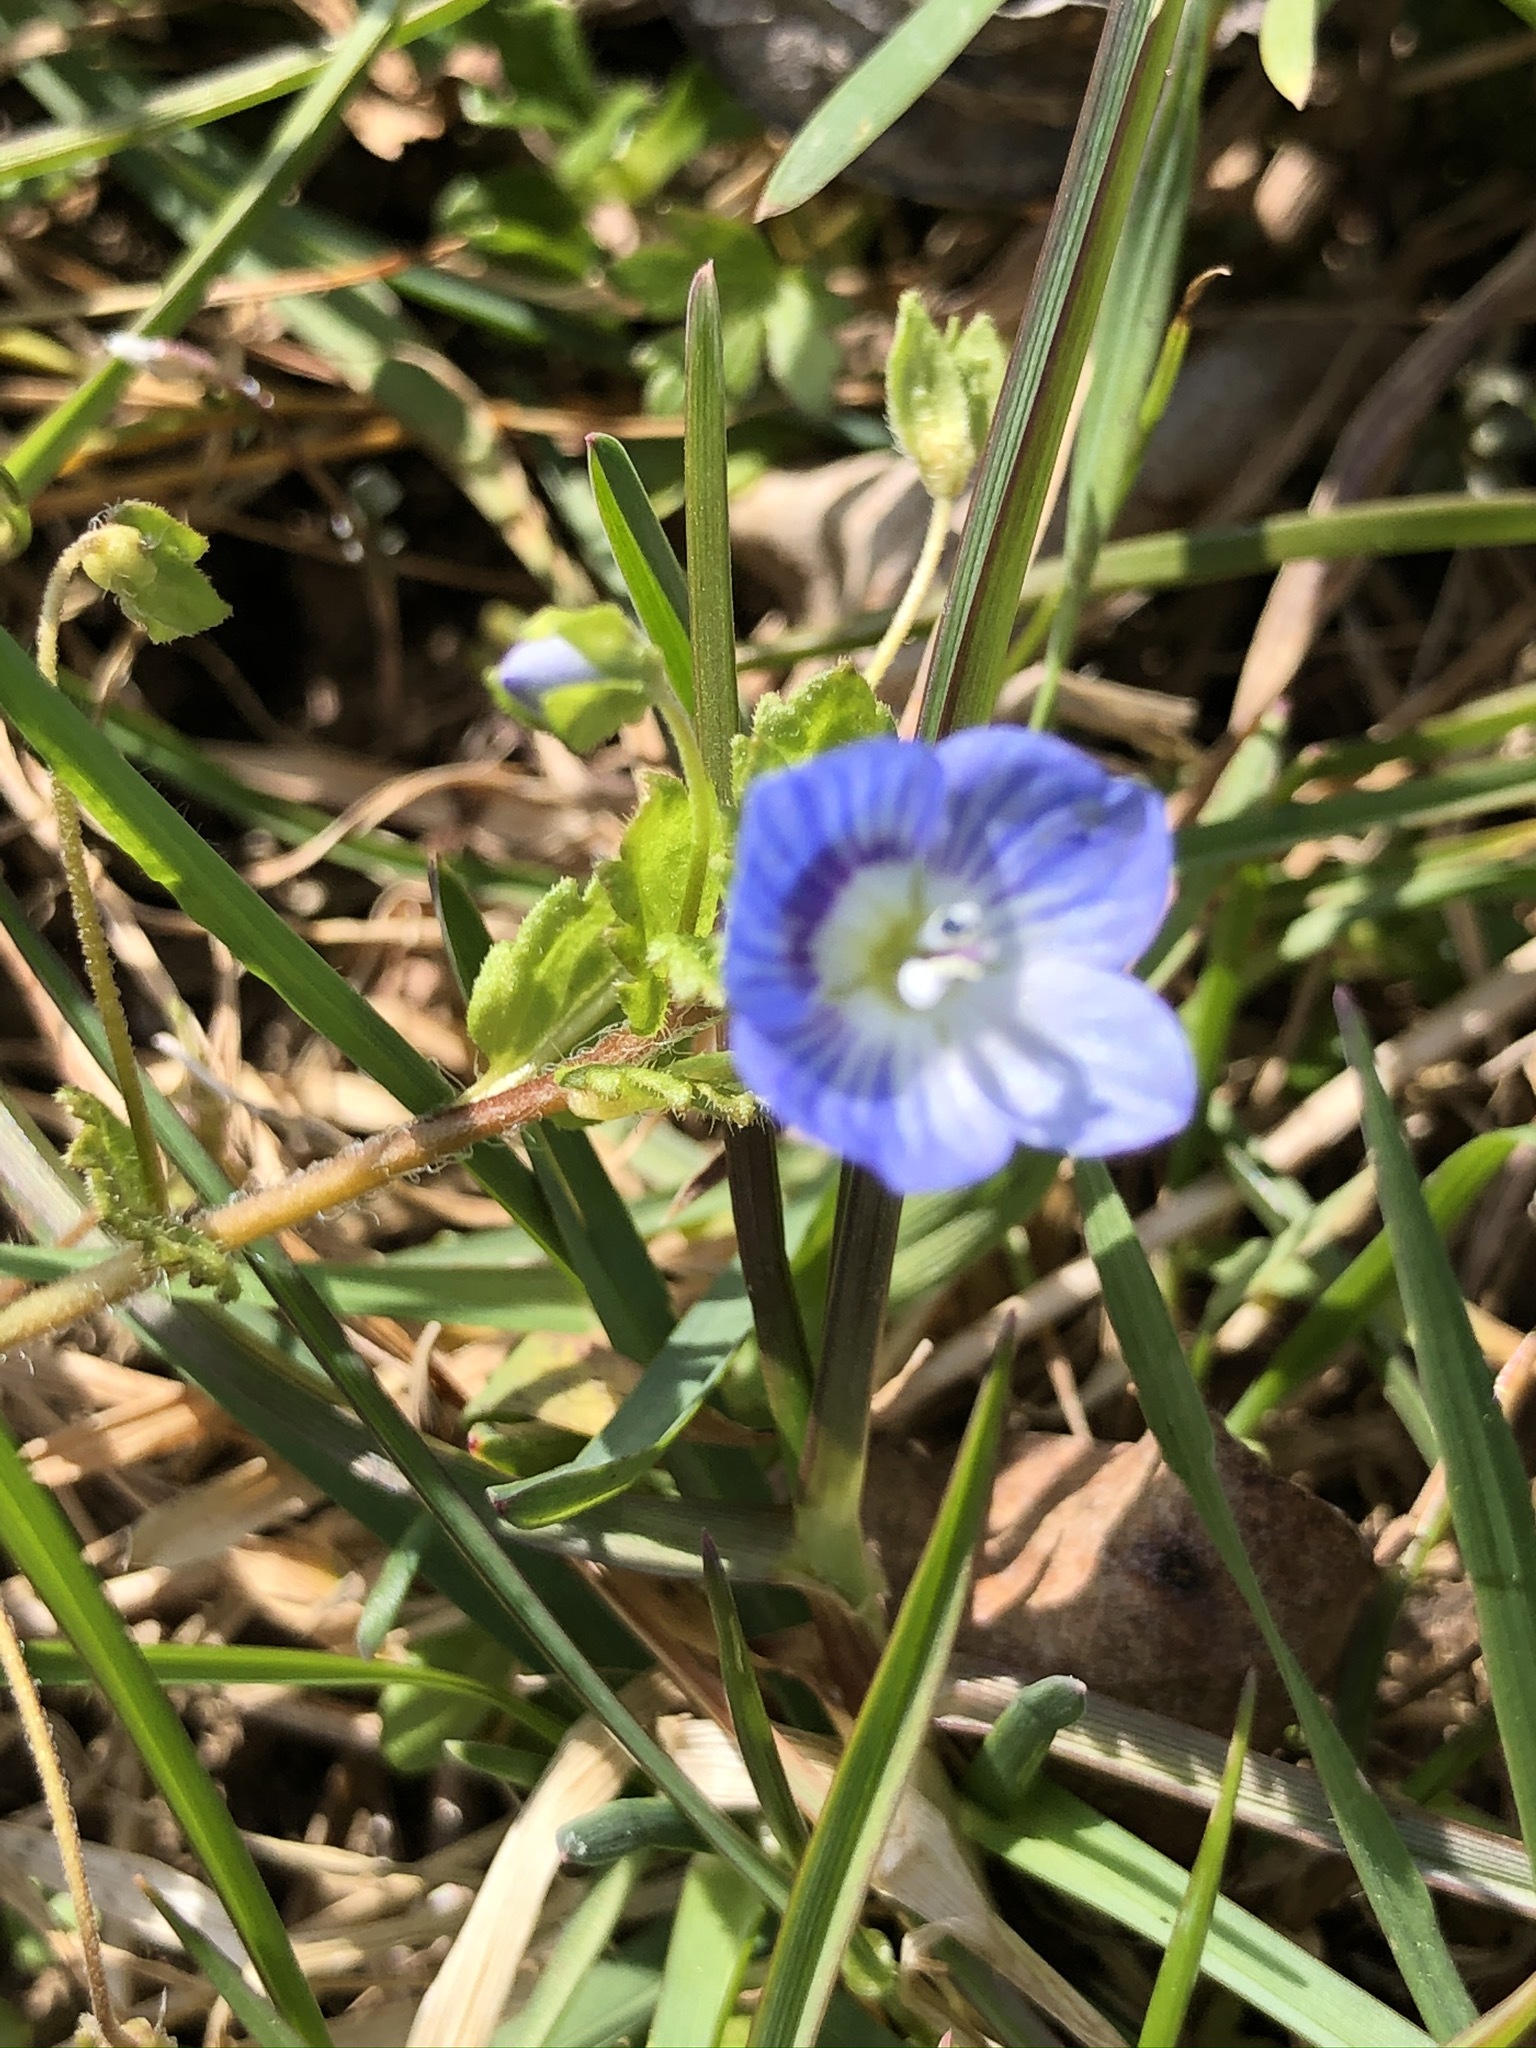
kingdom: Plantae
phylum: Tracheophyta
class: Magnoliopsida
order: Lamiales
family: Plantaginaceae
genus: Veronica
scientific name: Veronica persica
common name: Common field-speedwell
